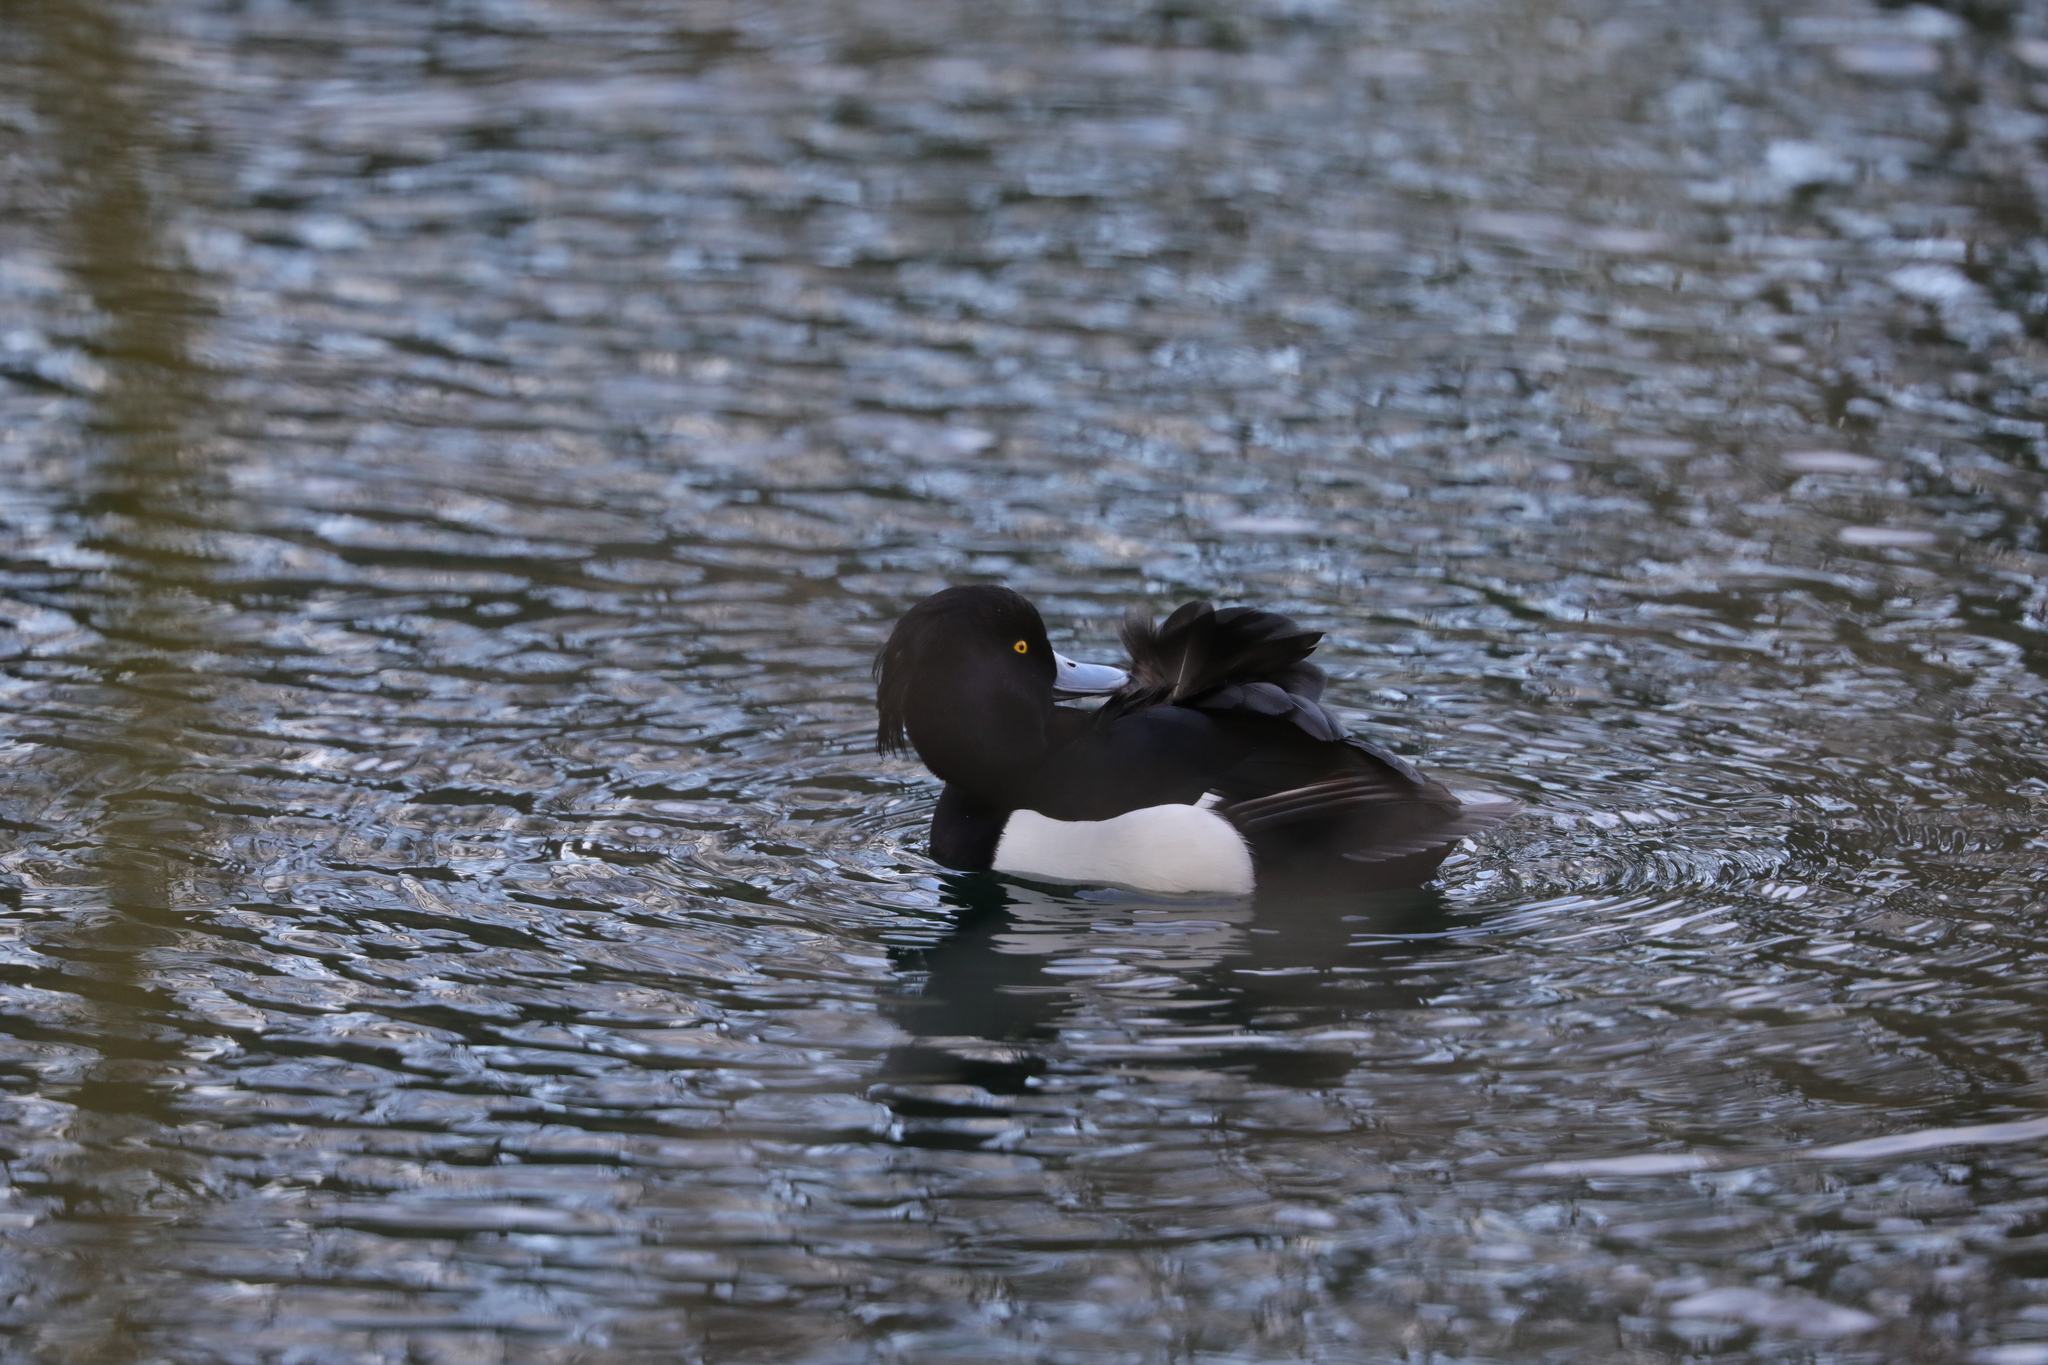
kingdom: Animalia
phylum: Chordata
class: Aves
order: Anseriformes
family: Anatidae
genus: Aythya
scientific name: Aythya fuligula
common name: Tufted duck
